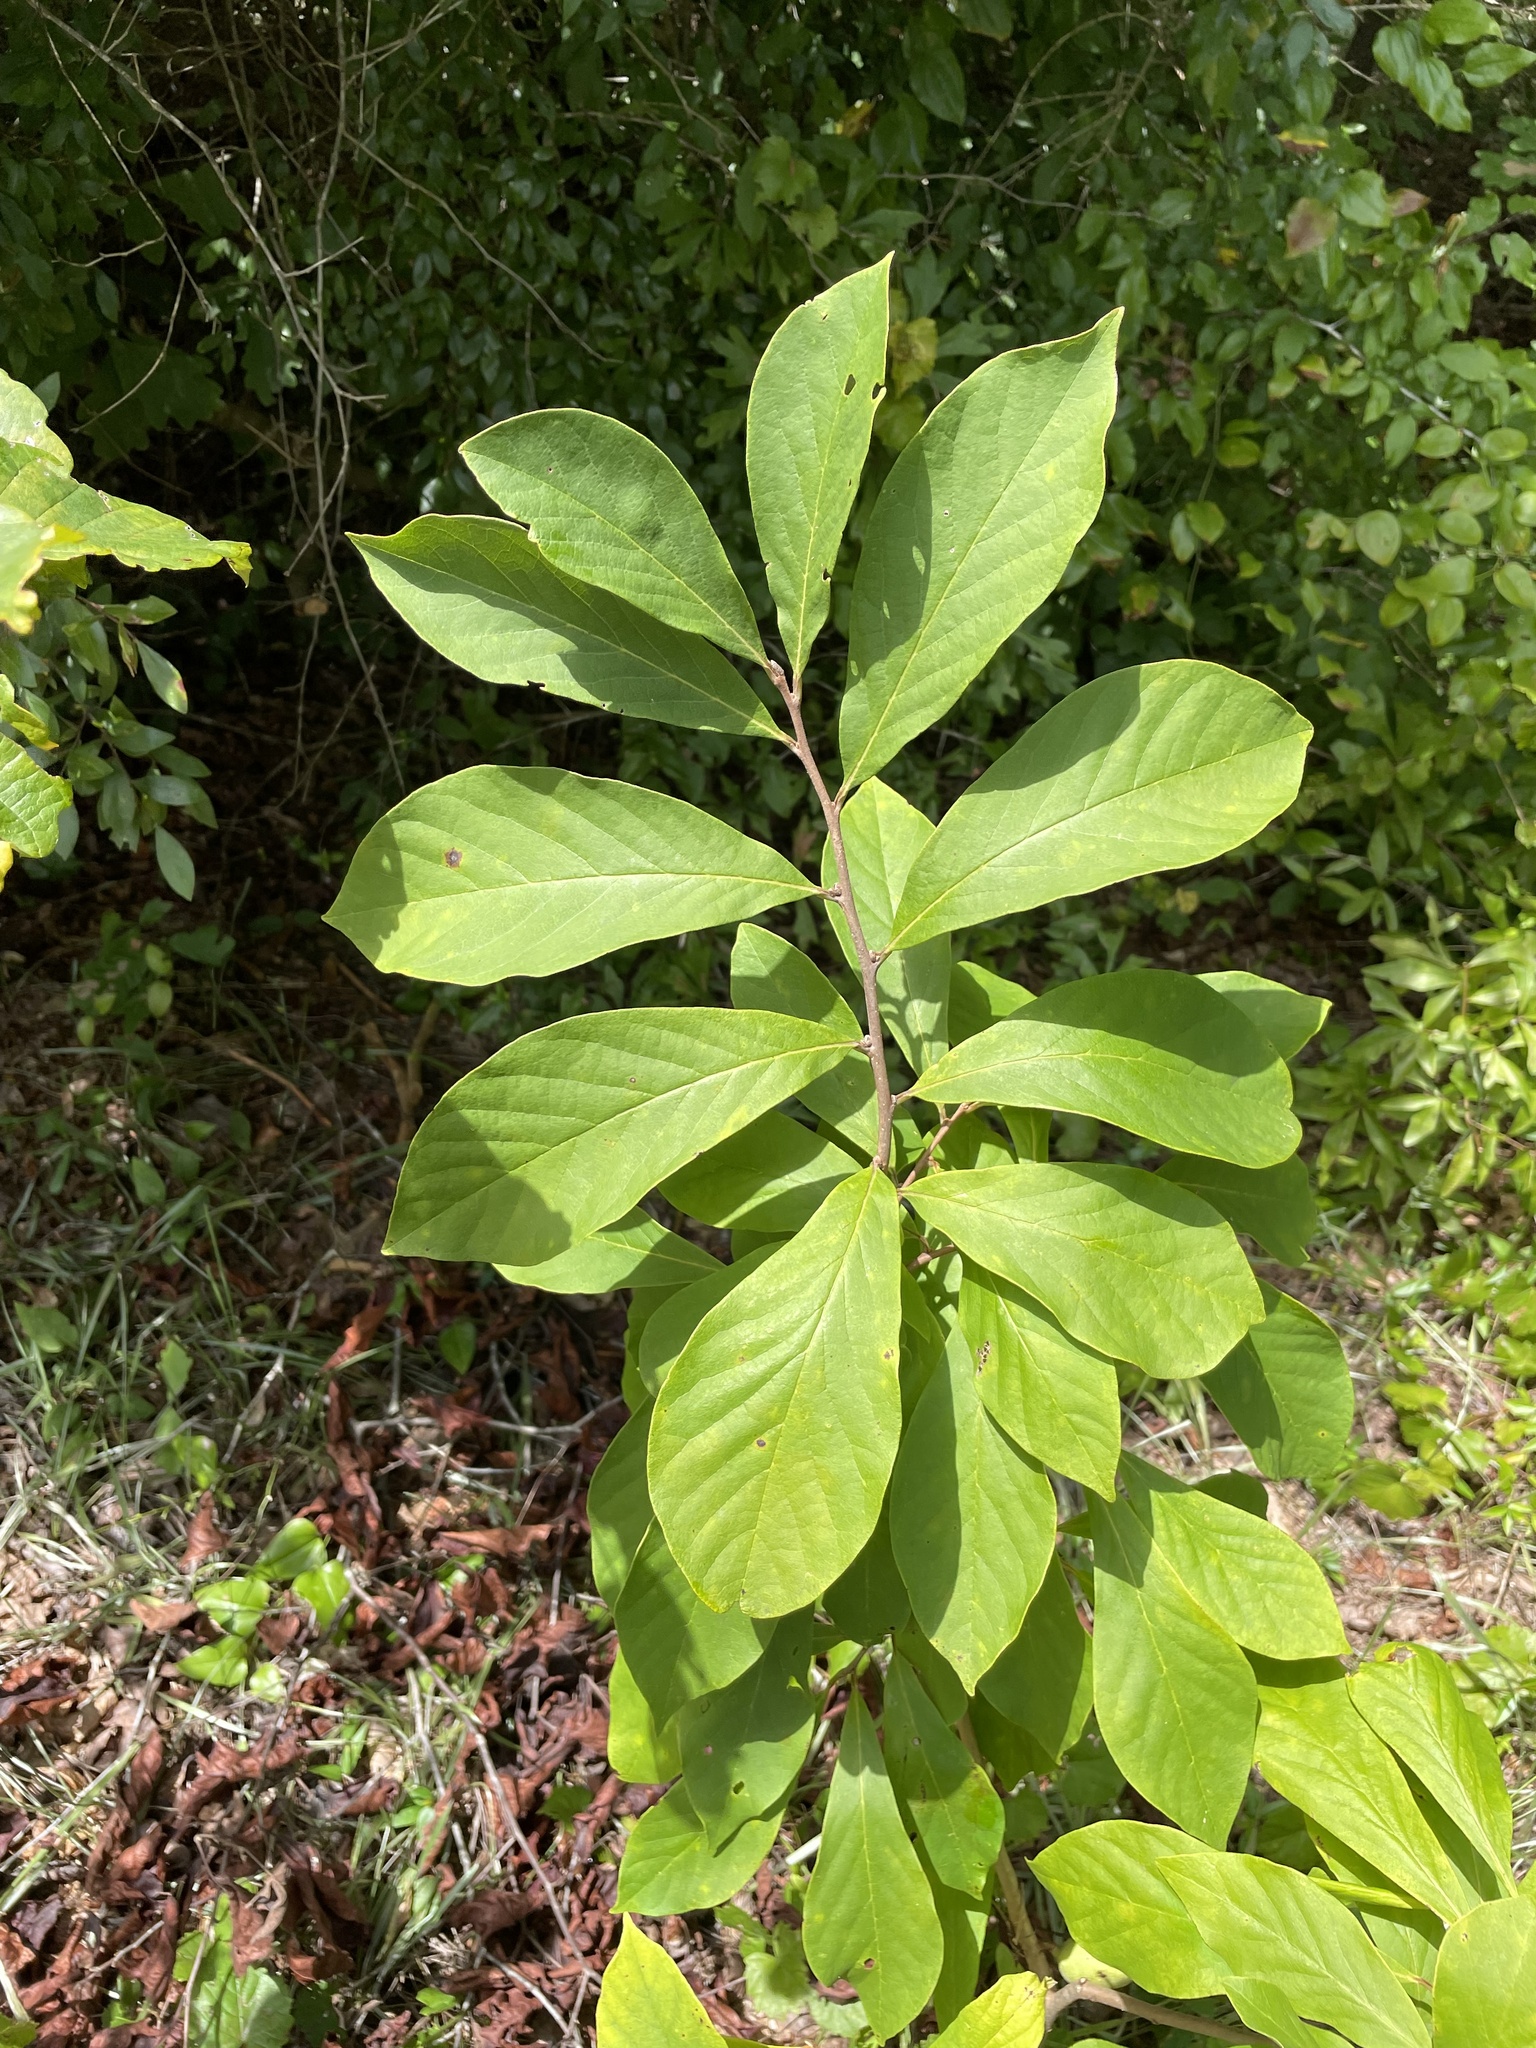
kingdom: Plantae
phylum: Tracheophyta
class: Magnoliopsida
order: Magnoliales
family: Annonaceae
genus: Asimina
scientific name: Asimina parviflora
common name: Dwarf pawpaw
